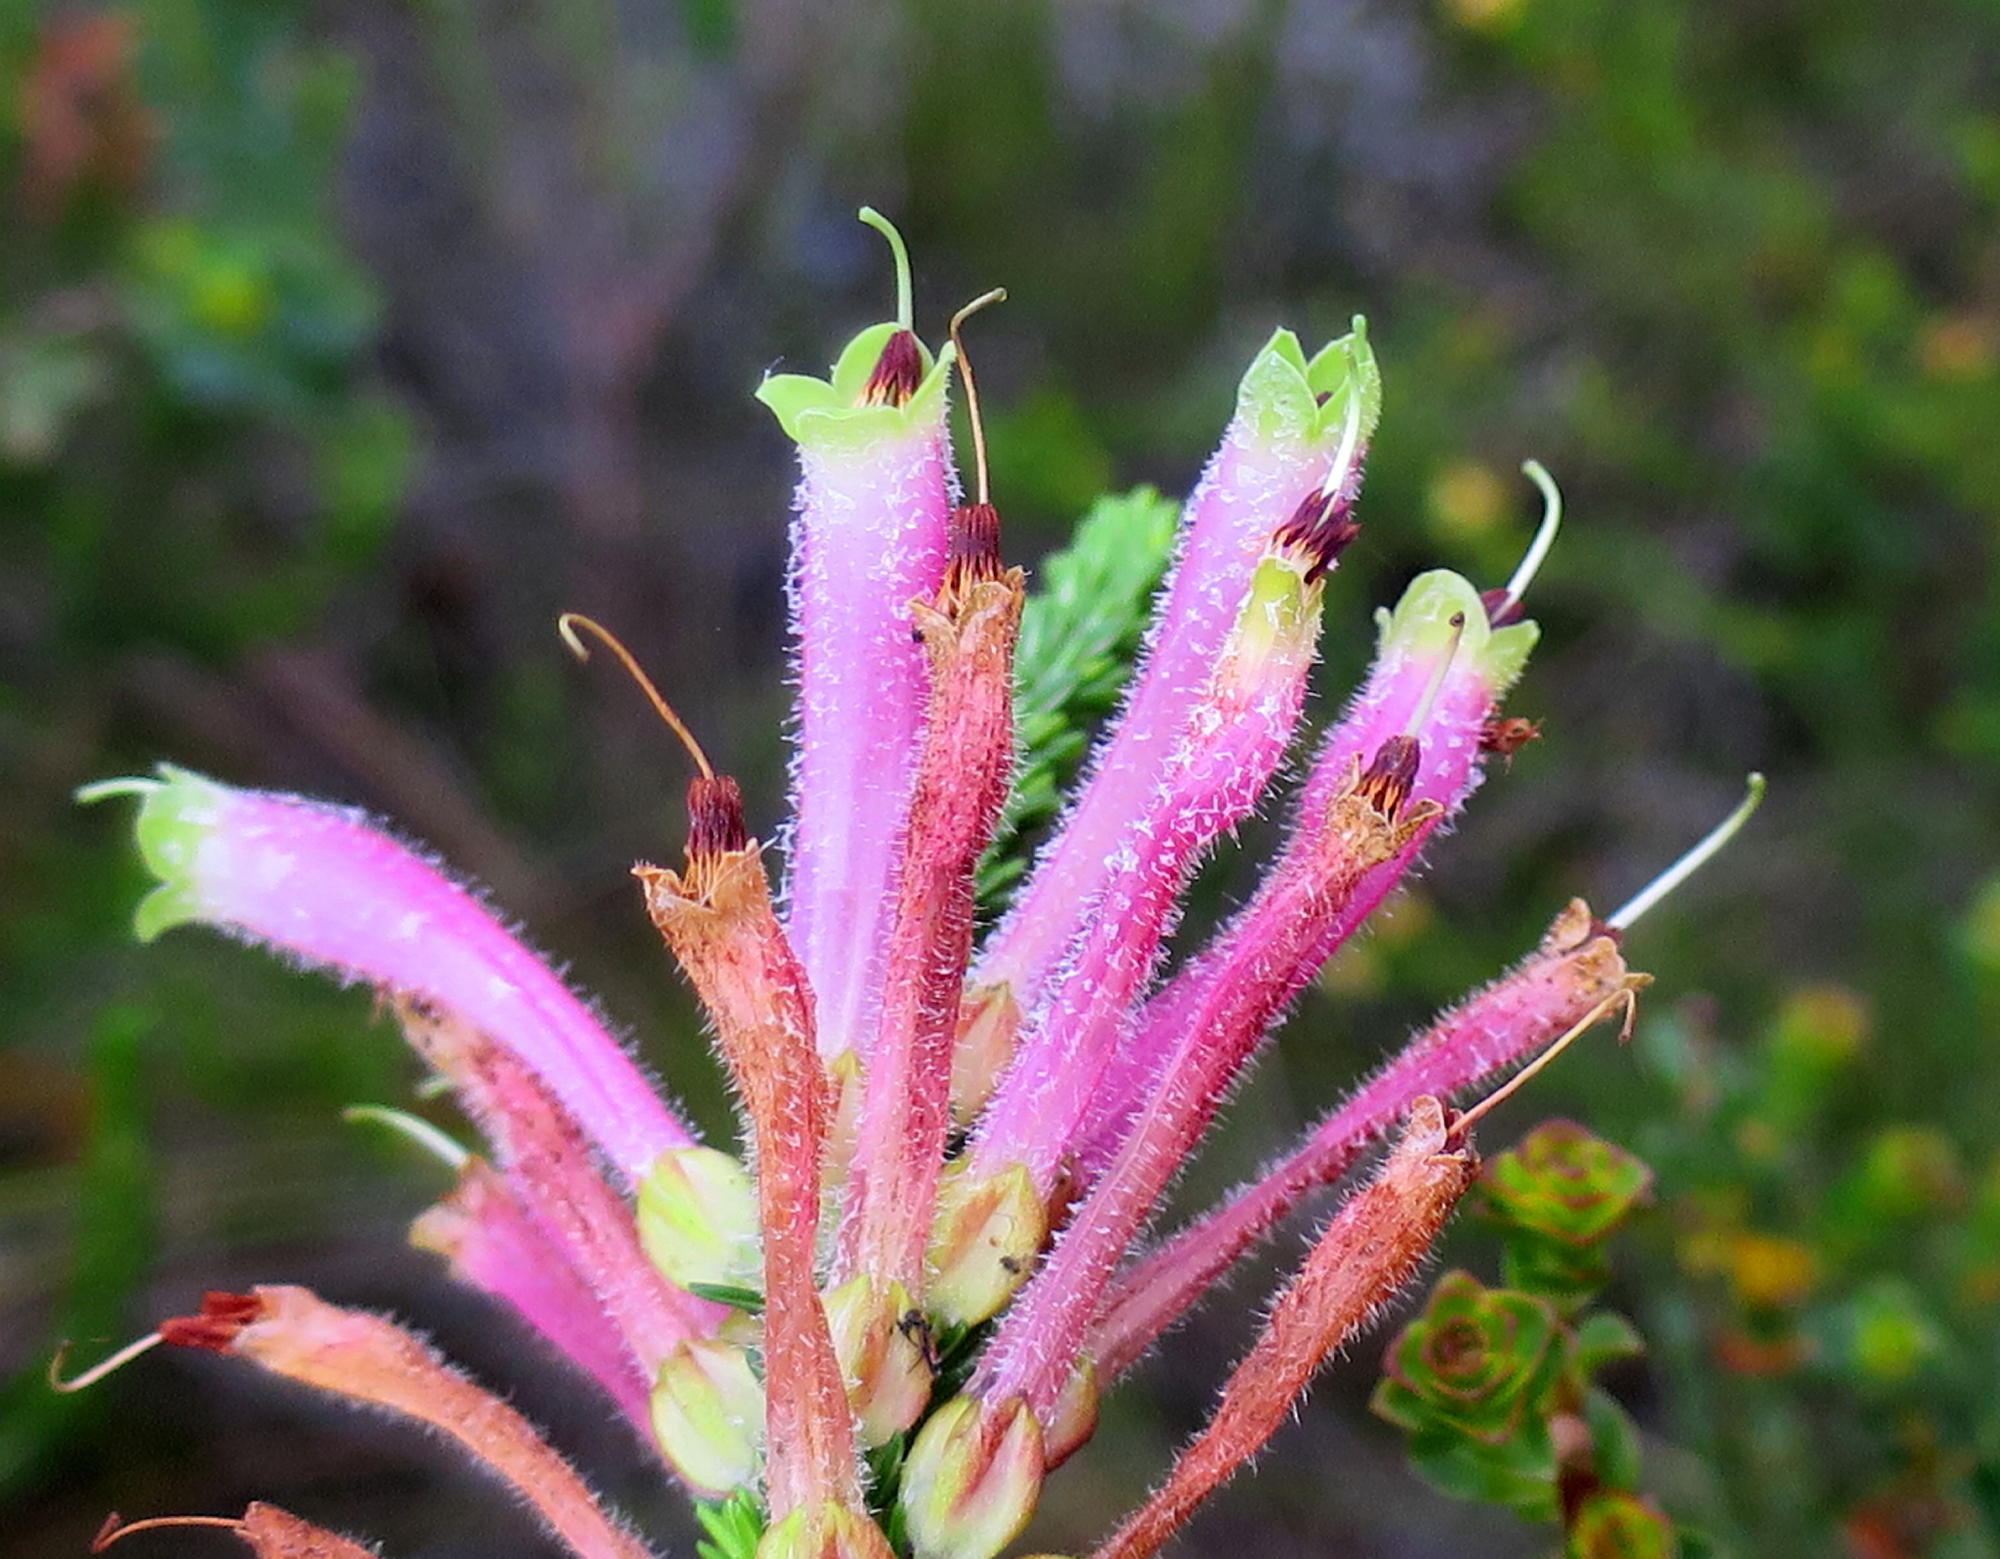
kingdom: Plantae
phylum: Tracheophyta
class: Magnoliopsida
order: Ericales
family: Ericaceae
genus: Erica
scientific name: Erica densifolia
